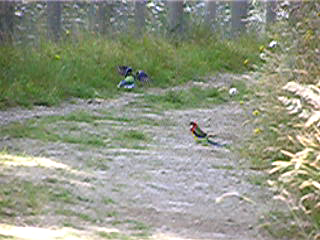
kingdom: Animalia
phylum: Chordata
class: Aves
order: Psittaciformes
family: Psittacidae
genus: Platycercus
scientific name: Platycercus eximius
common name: Eastern rosella
